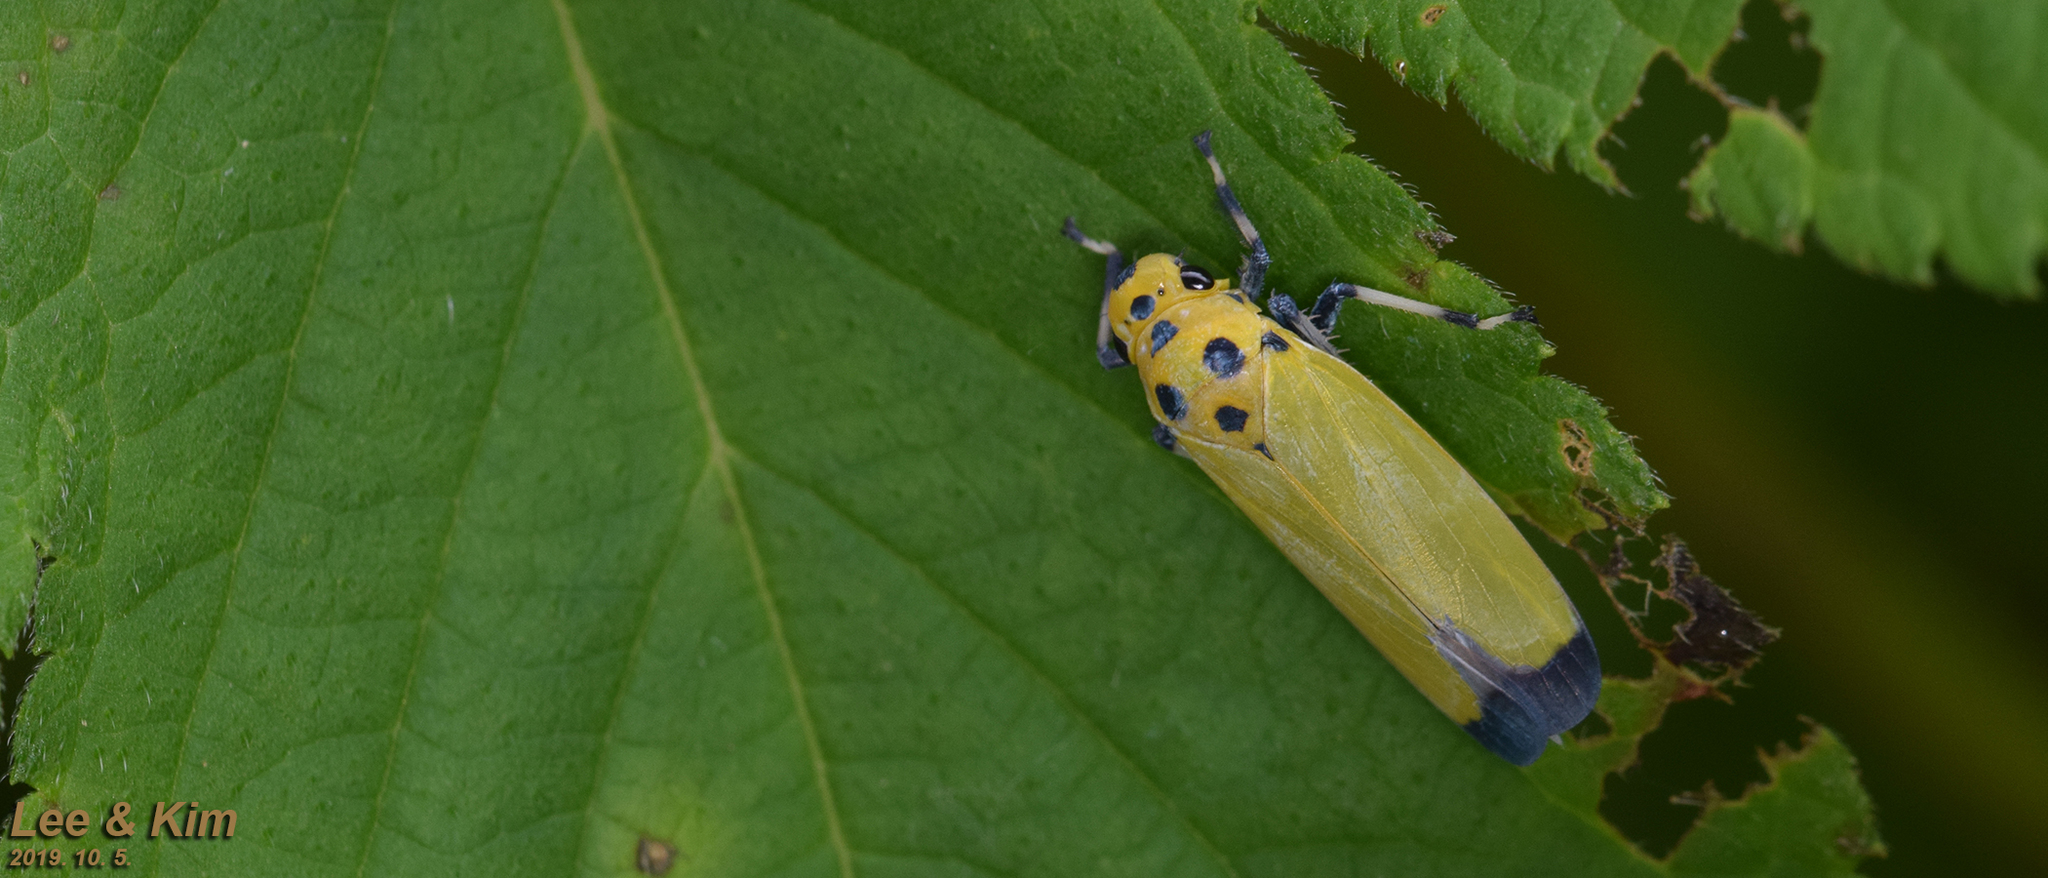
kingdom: Animalia
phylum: Arthropoda
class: Insecta
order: Hemiptera
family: Cicadellidae
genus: Bothrogonia
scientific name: Bothrogonia ferruginea
